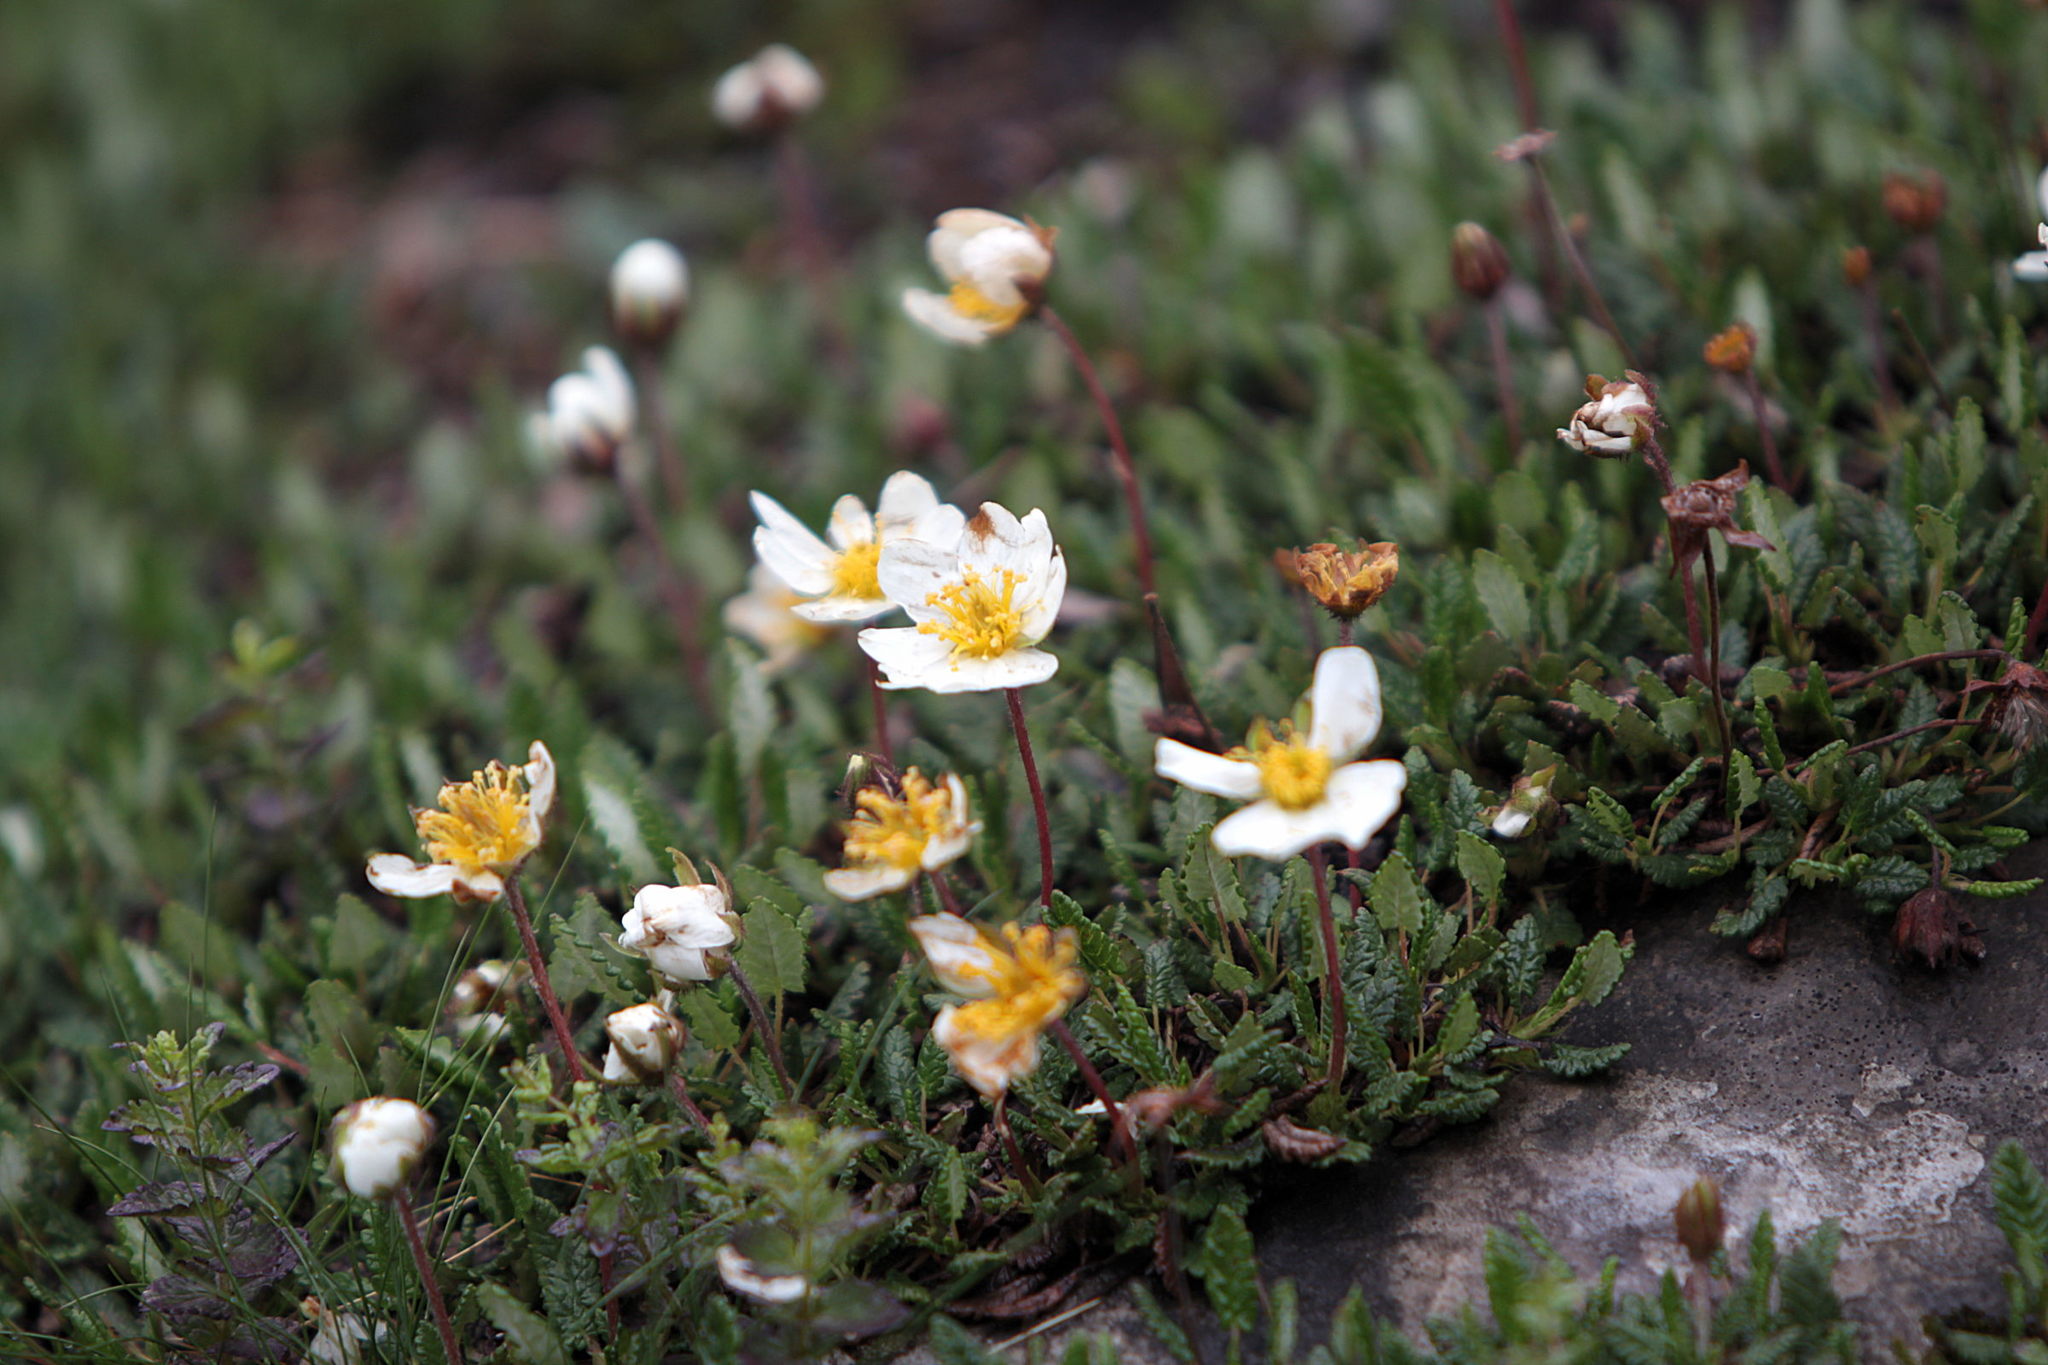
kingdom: Plantae
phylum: Tracheophyta
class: Magnoliopsida
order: Rosales
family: Rosaceae
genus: Dryas
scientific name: Dryas octopetala
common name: Eight-petal mountain-avens
